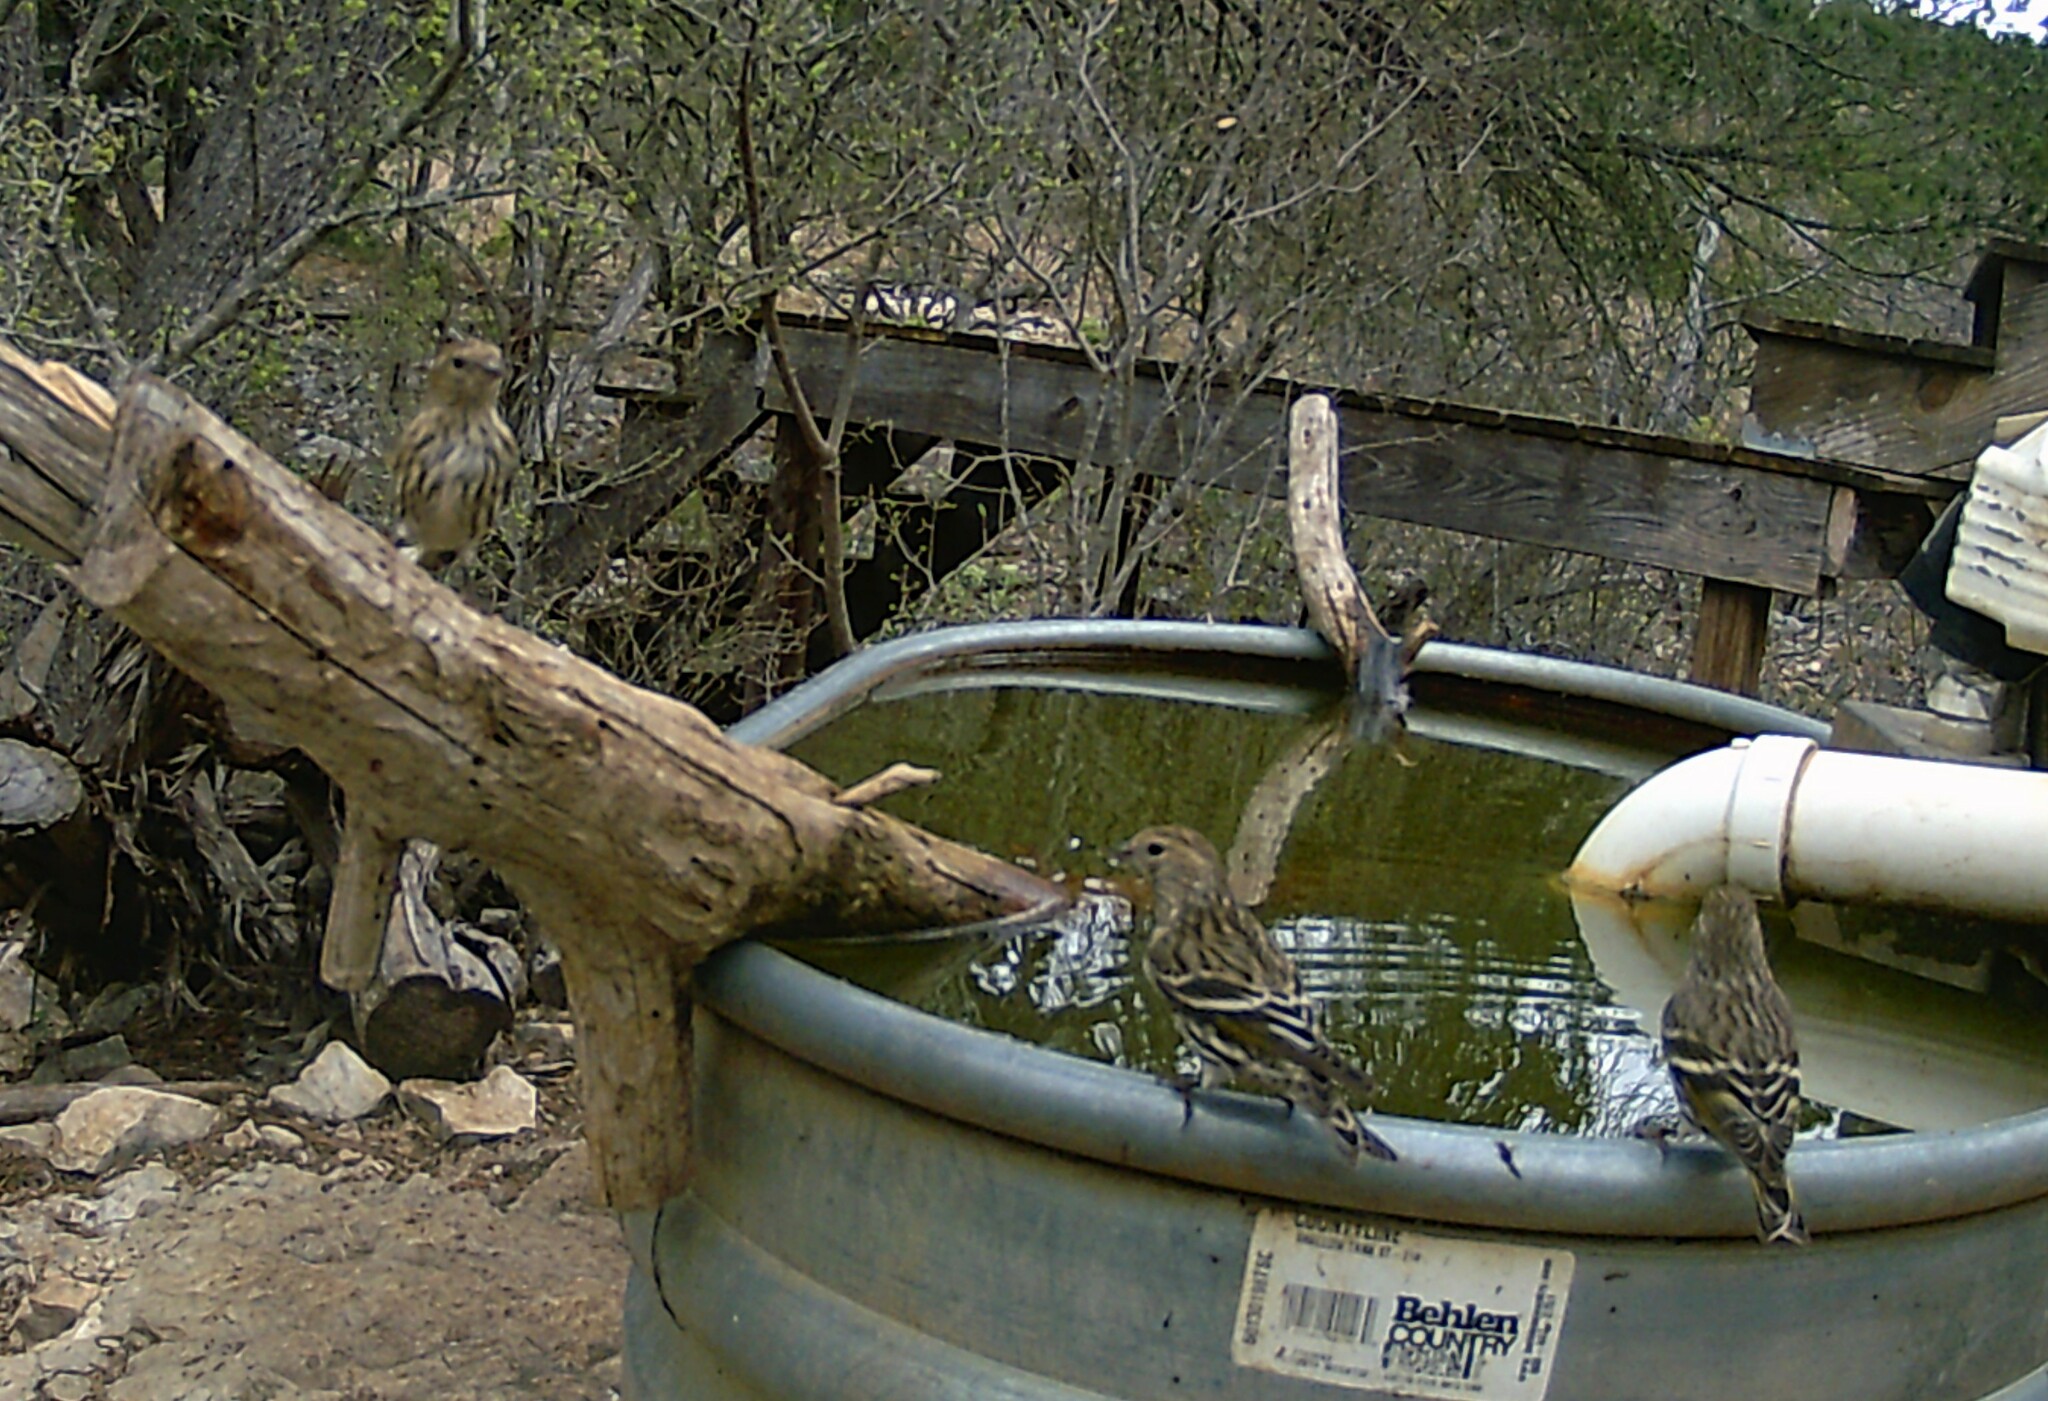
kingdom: Animalia
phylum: Chordata
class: Aves
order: Passeriformes
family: Fringillidae
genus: Spinus
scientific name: Spinus pinus
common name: Pine siskin
